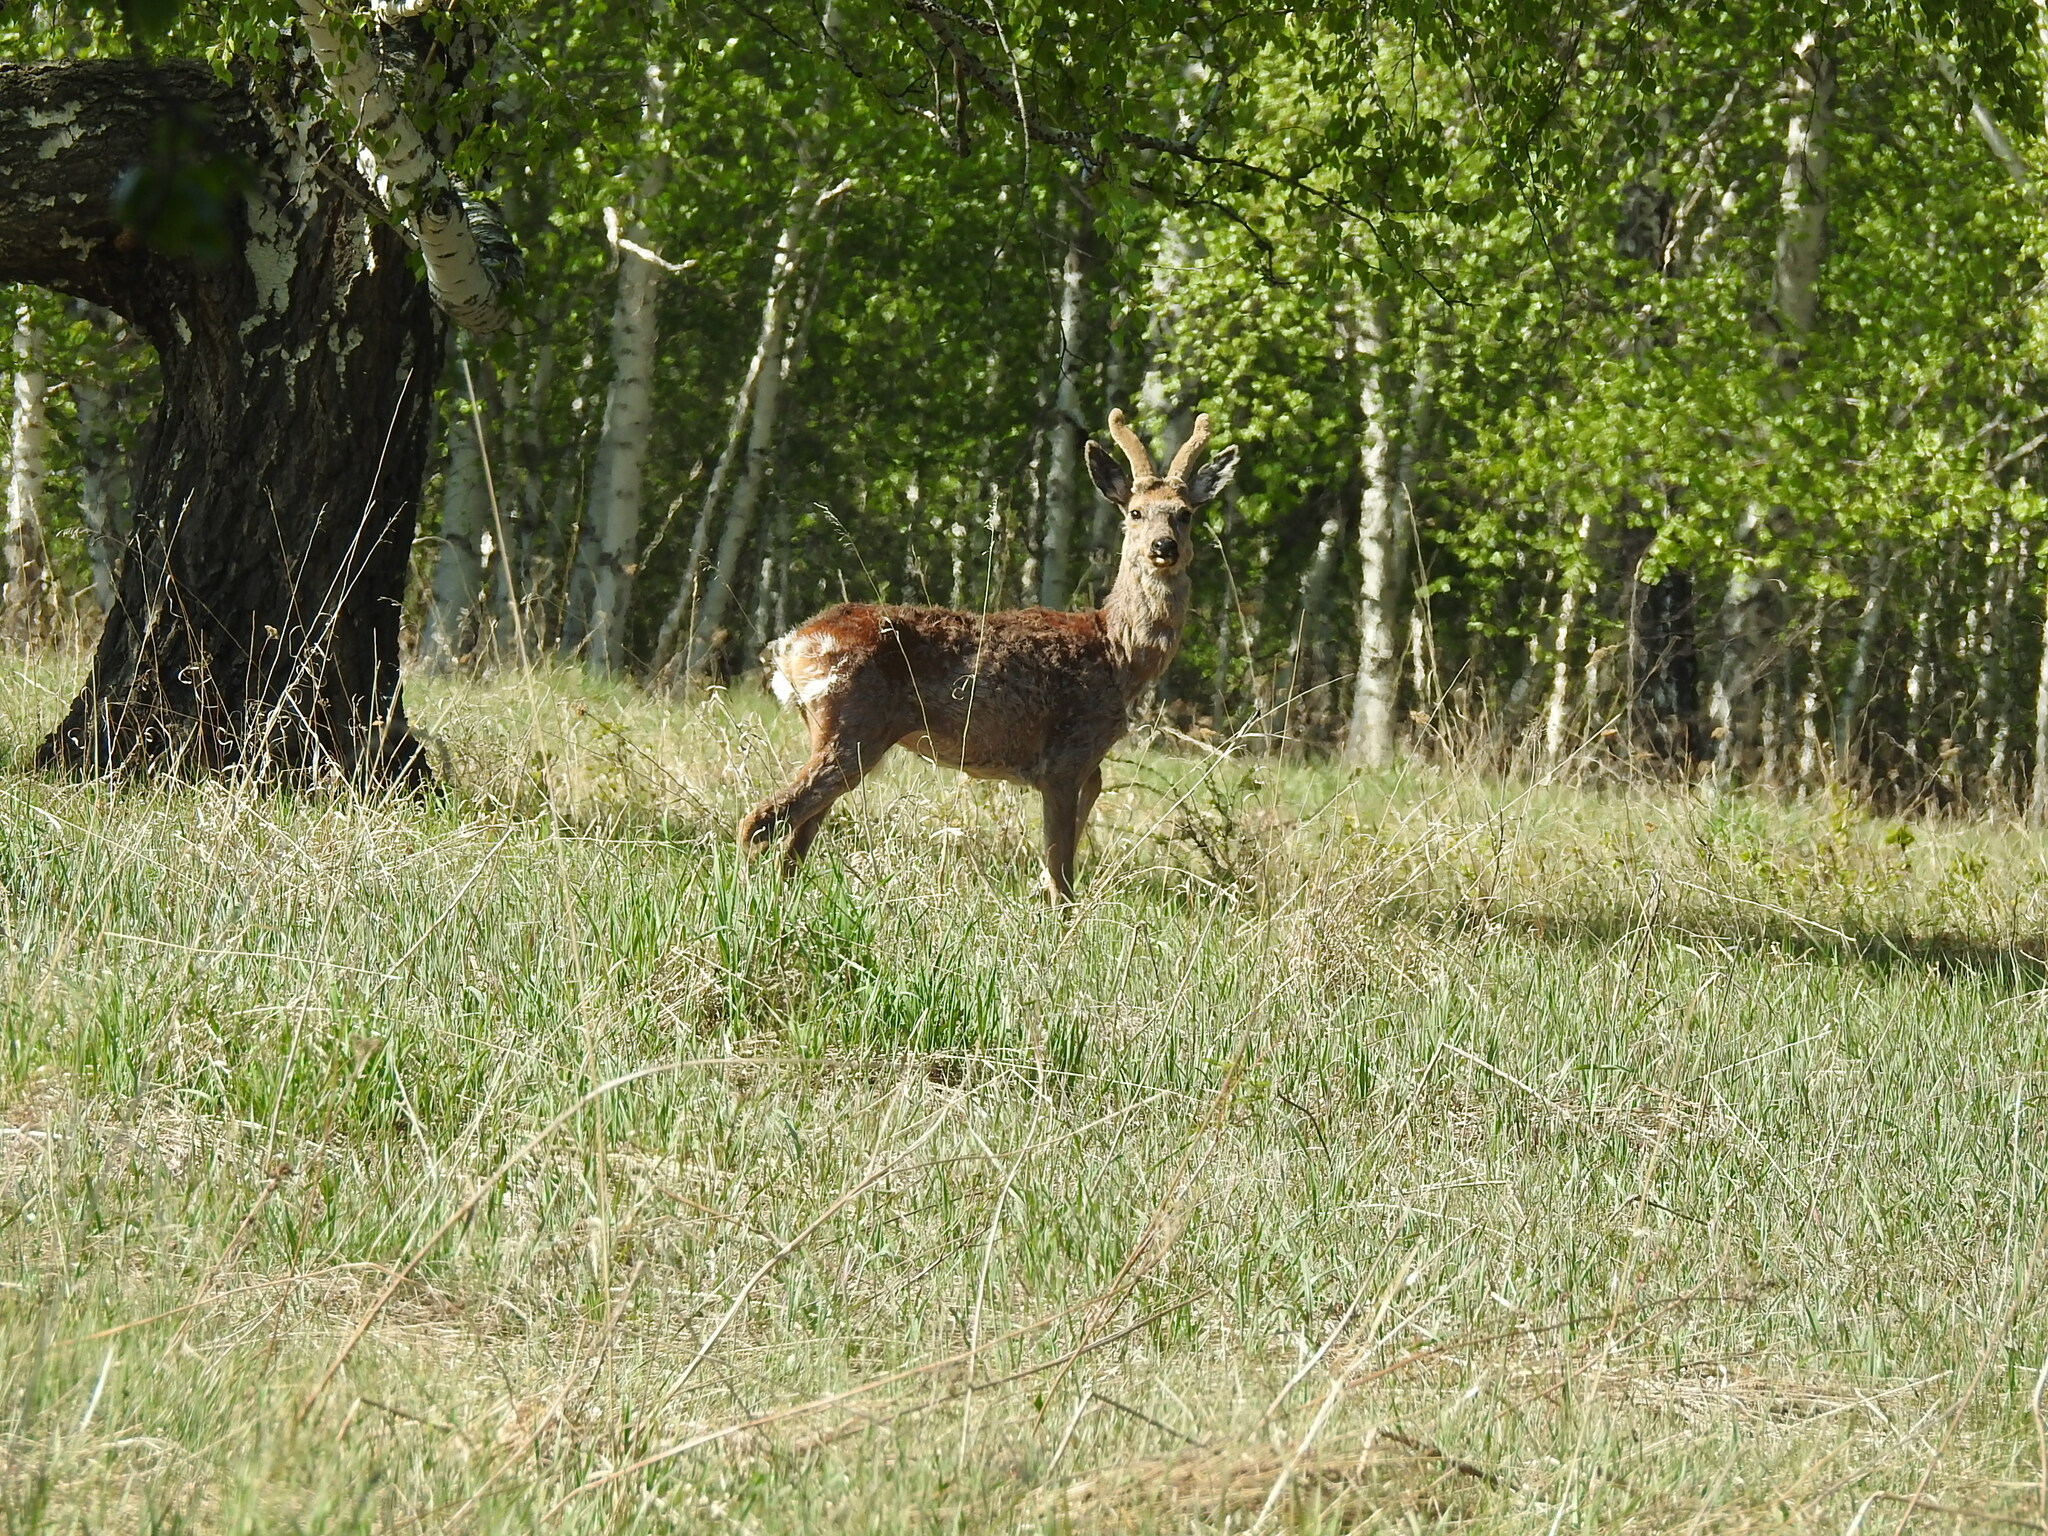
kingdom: Animalia
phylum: Chordata
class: Mammalia
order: Artiodactyla
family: Cervidae
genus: Capreolus
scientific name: Capreolus pygargus
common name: Siberian roe
